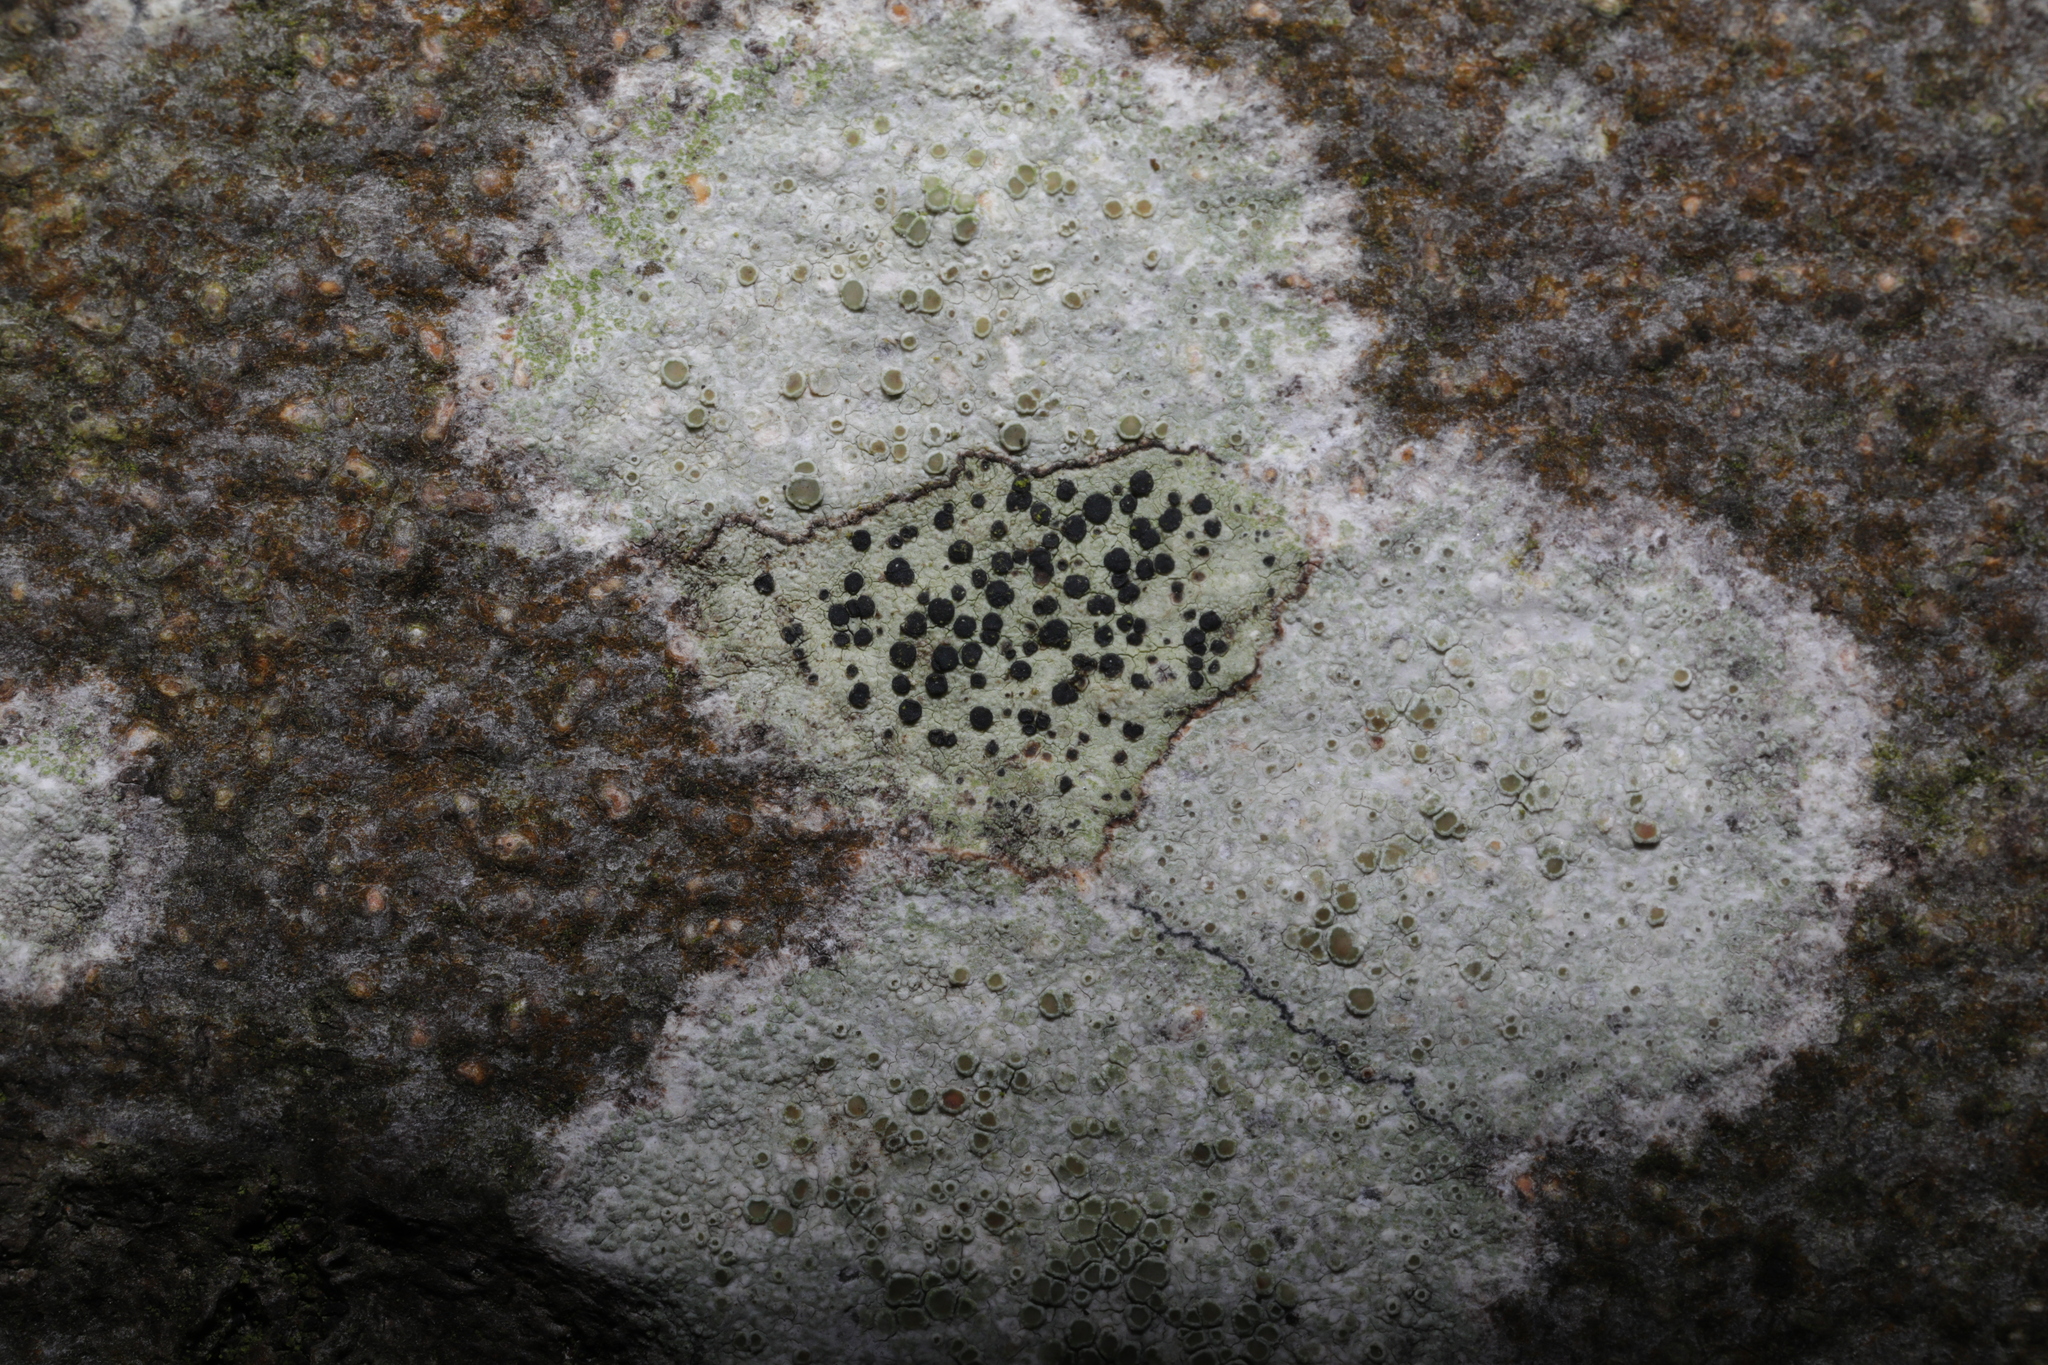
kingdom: Fungi
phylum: Ascomycota
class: Lecanoromycetes
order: Lecanorales
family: Lecanoraceae
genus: Lecidella
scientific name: Lecidella elaeochroma
